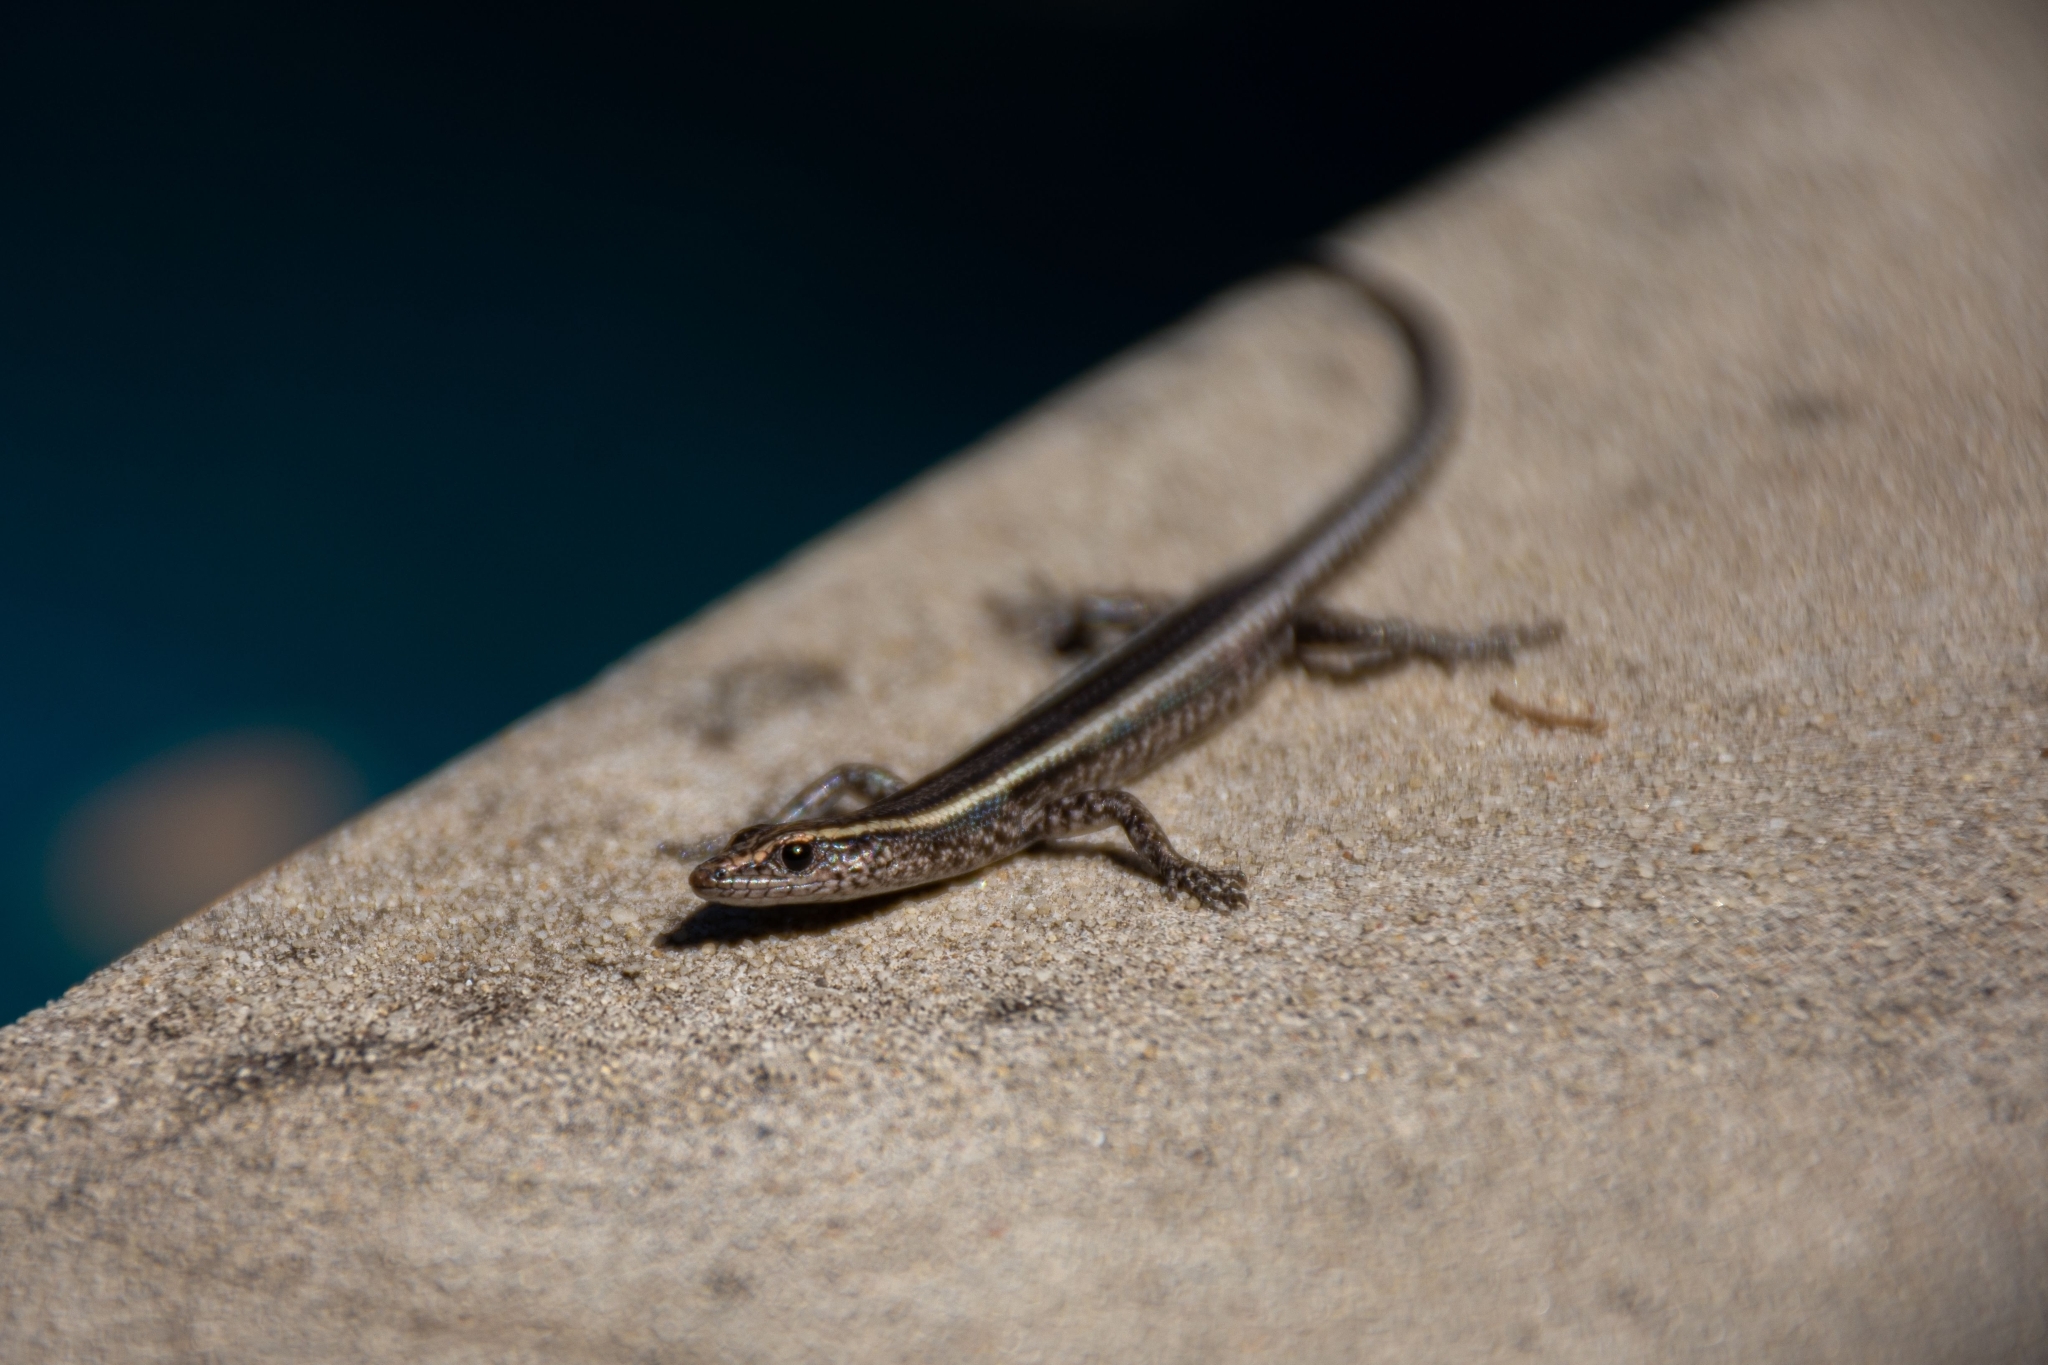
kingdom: Animalia
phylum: Chordata
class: Squamata
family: Scincidae
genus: Cryptoblepharus
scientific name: Cryptoblepharus pulcher
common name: Elegant snake-eyed skink
